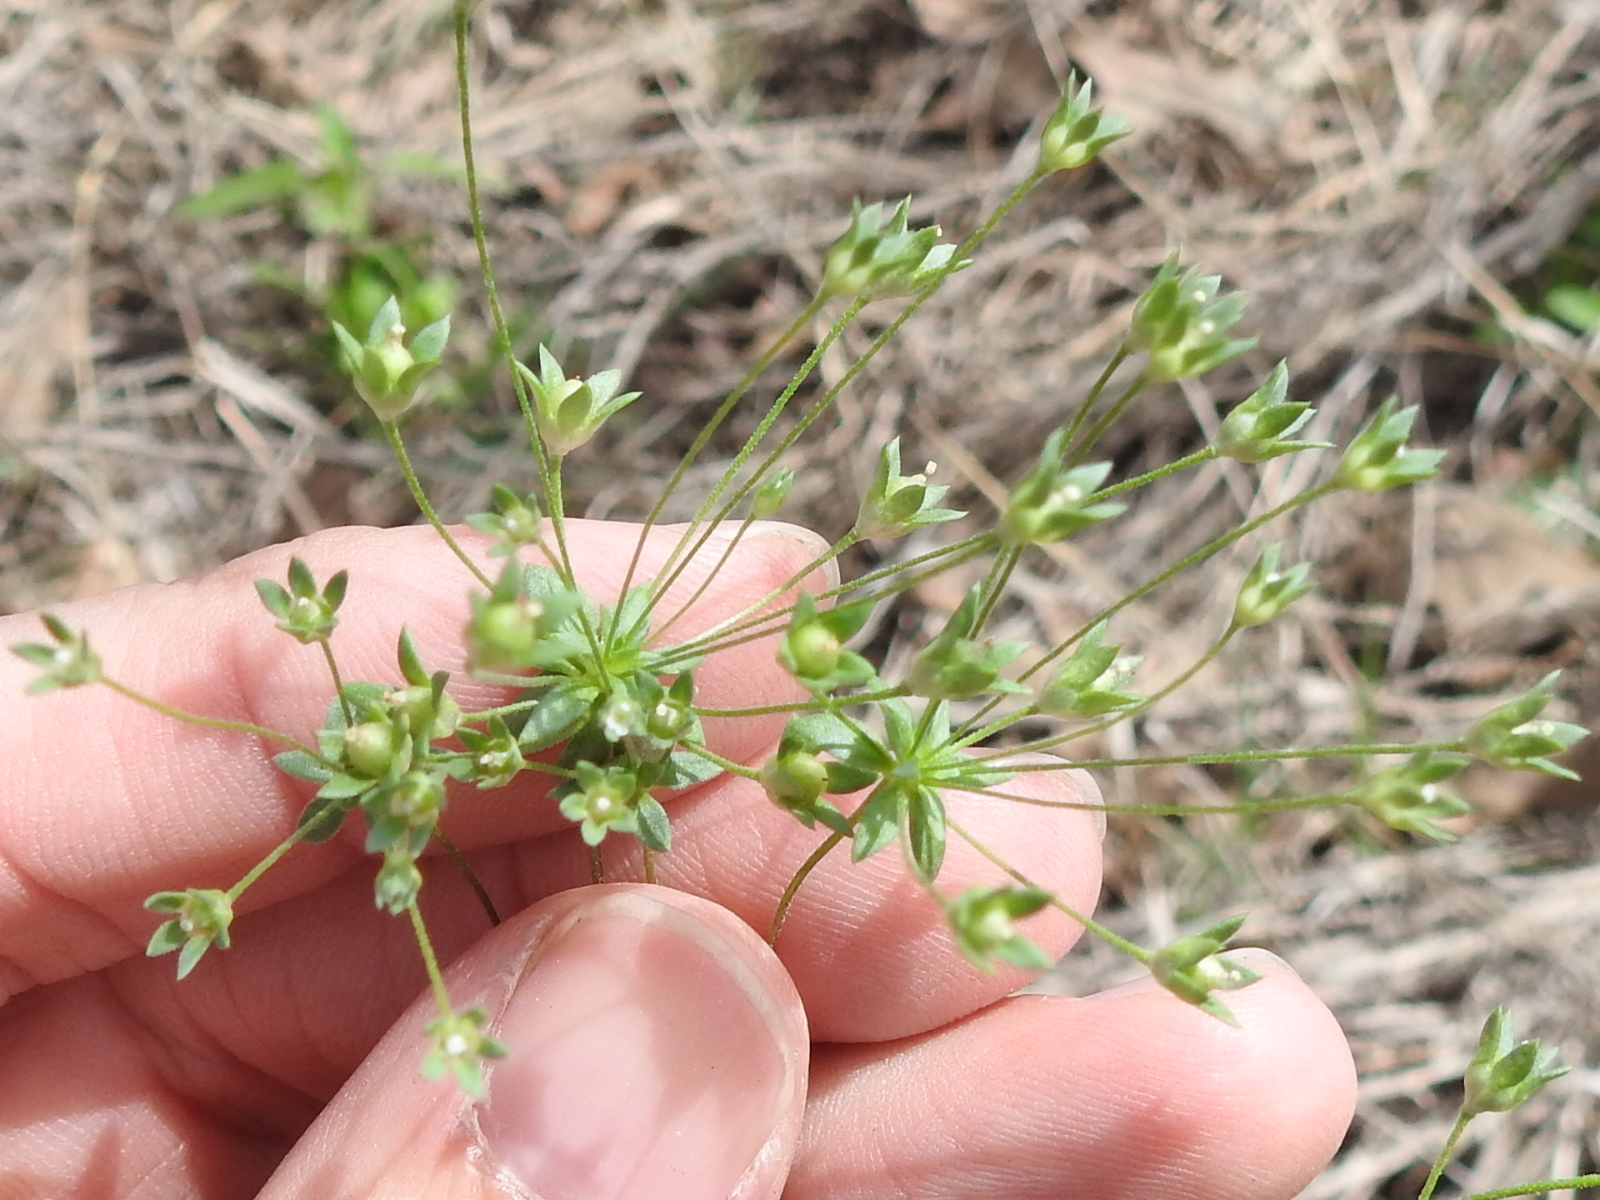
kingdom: Plantae
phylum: Tracheophyta
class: Magnoliopsida
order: Ericales
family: Primulaceae
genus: Androsace
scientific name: Androsace occidentalis
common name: West rock-jasmine
